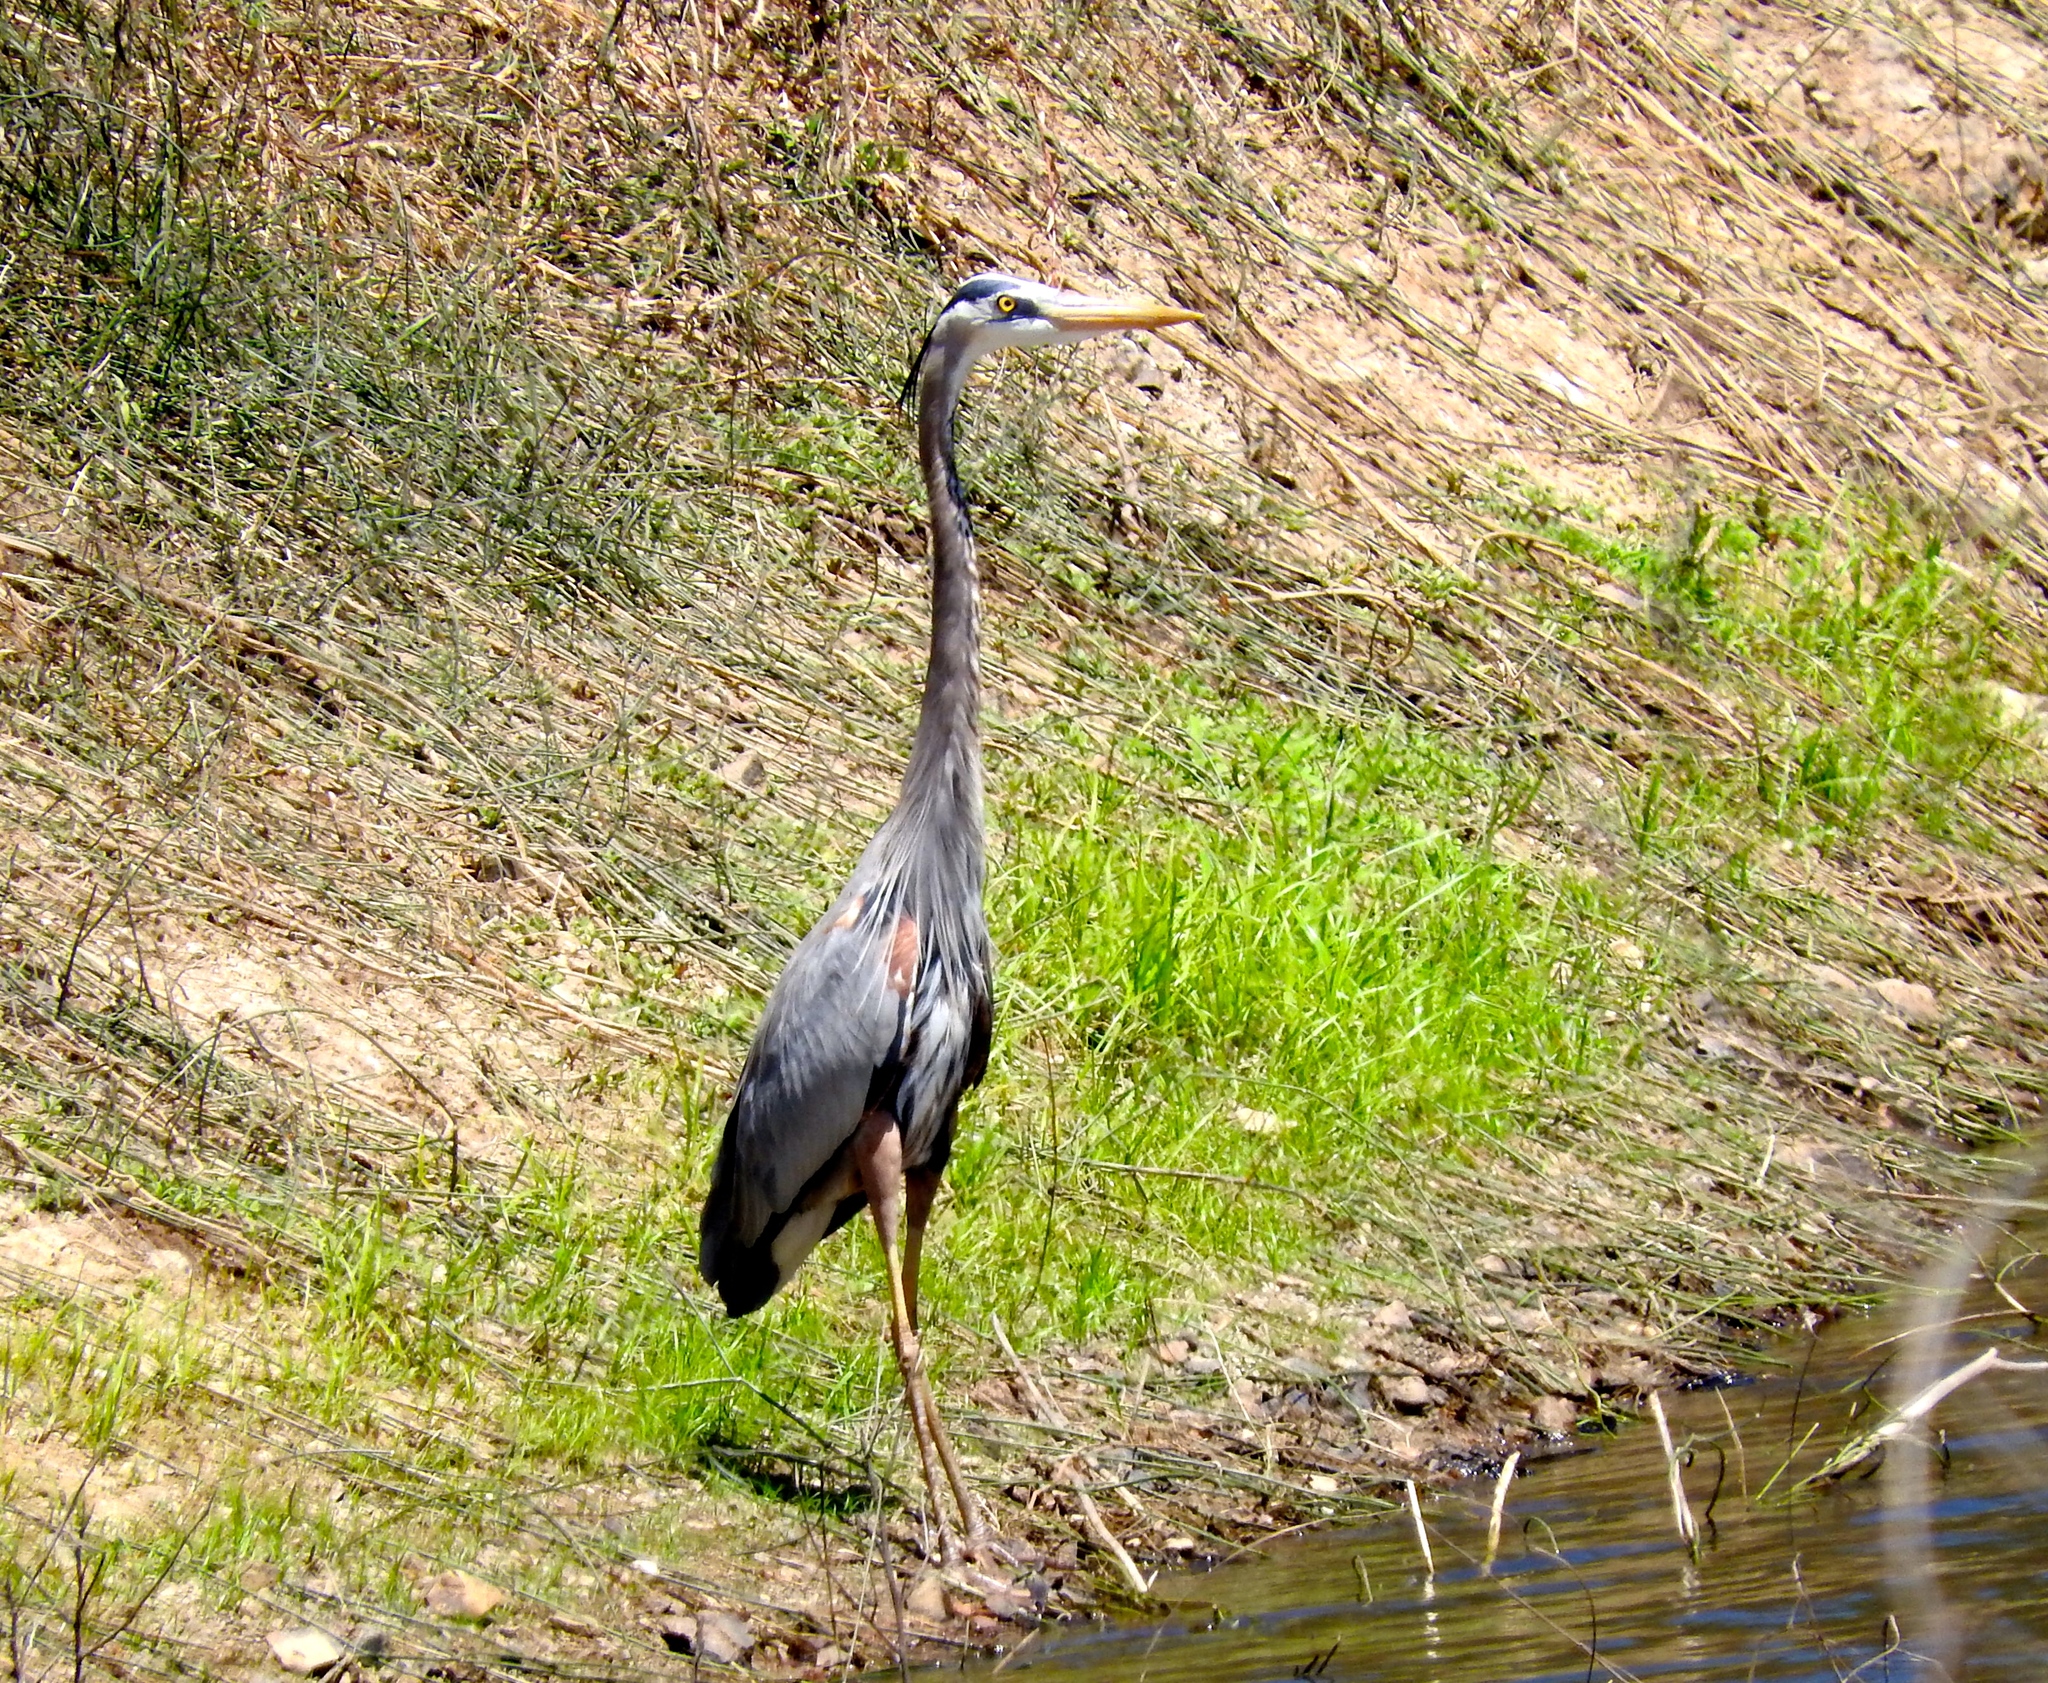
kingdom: Animalia
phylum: Chordata
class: Aves
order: Pelecaniformes
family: Ardeidae
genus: Ardea
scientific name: Ardea herodias
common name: Great blue heron
